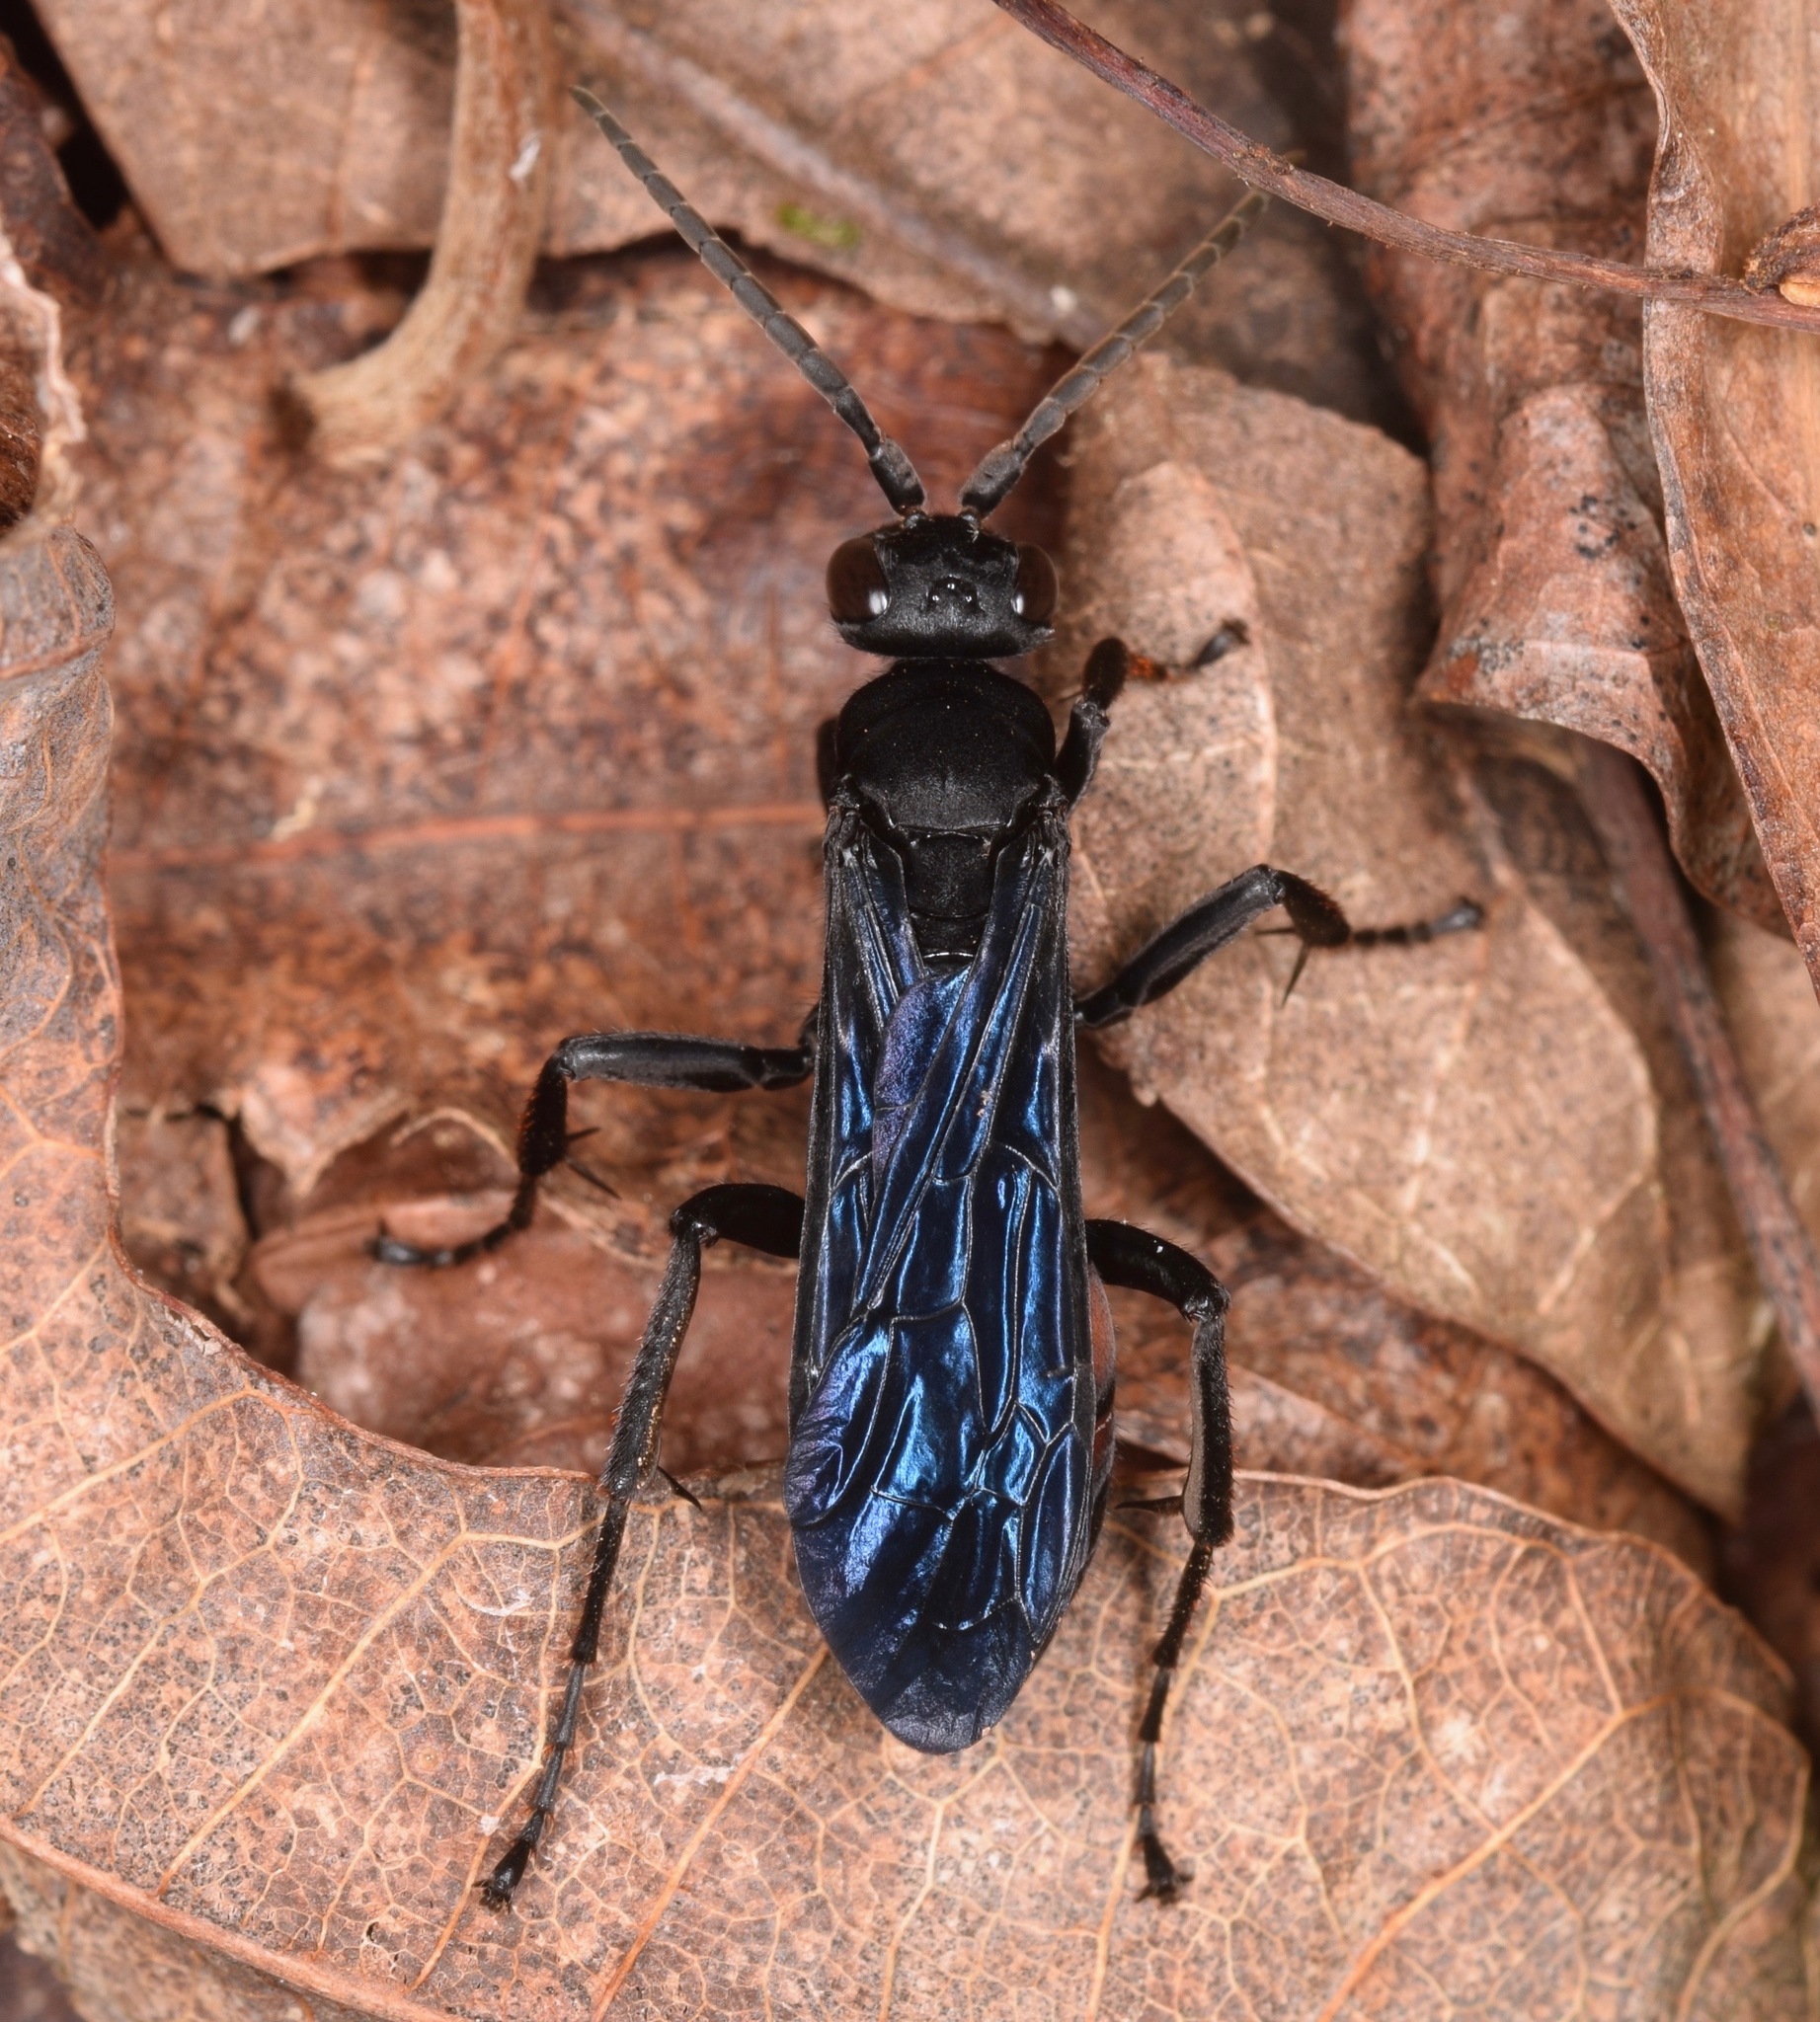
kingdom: Animalia
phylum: Arthropoda
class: Insecta
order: Hymenoptera
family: Pompilidae
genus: Chirodamus
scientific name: Chirodamus validus
